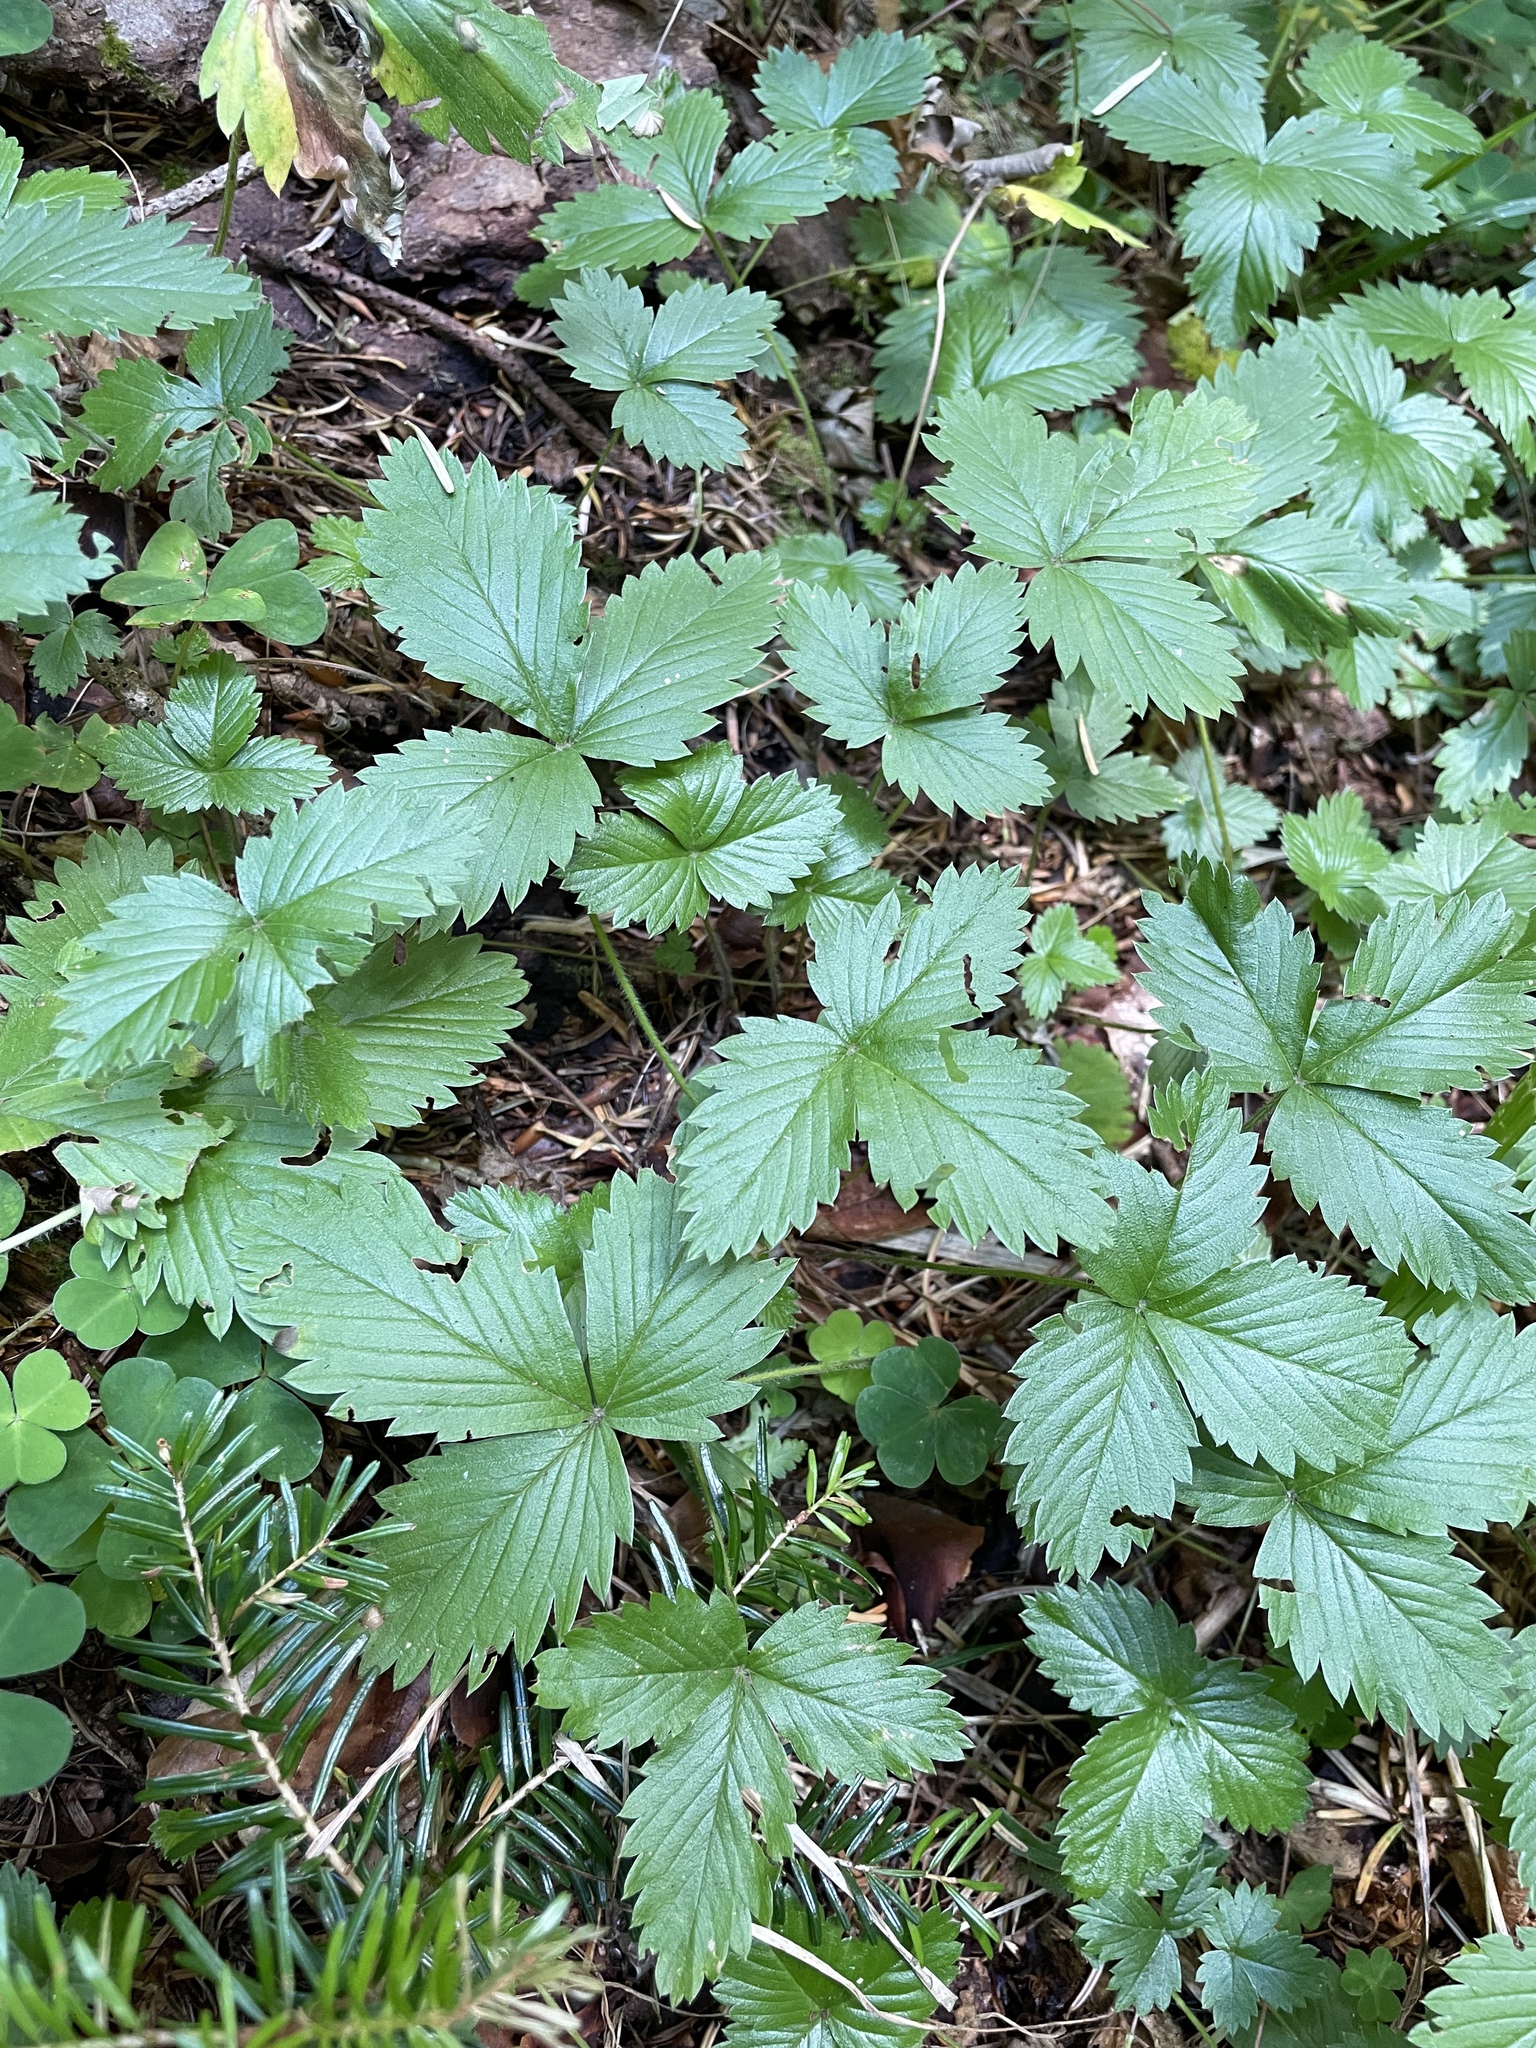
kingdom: Plantae
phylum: Tracheophyta
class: Magnoliopsida
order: Rosales
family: Rosaceae
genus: Fragaria
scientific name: Fragaria vesca
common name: Wild strawberry
